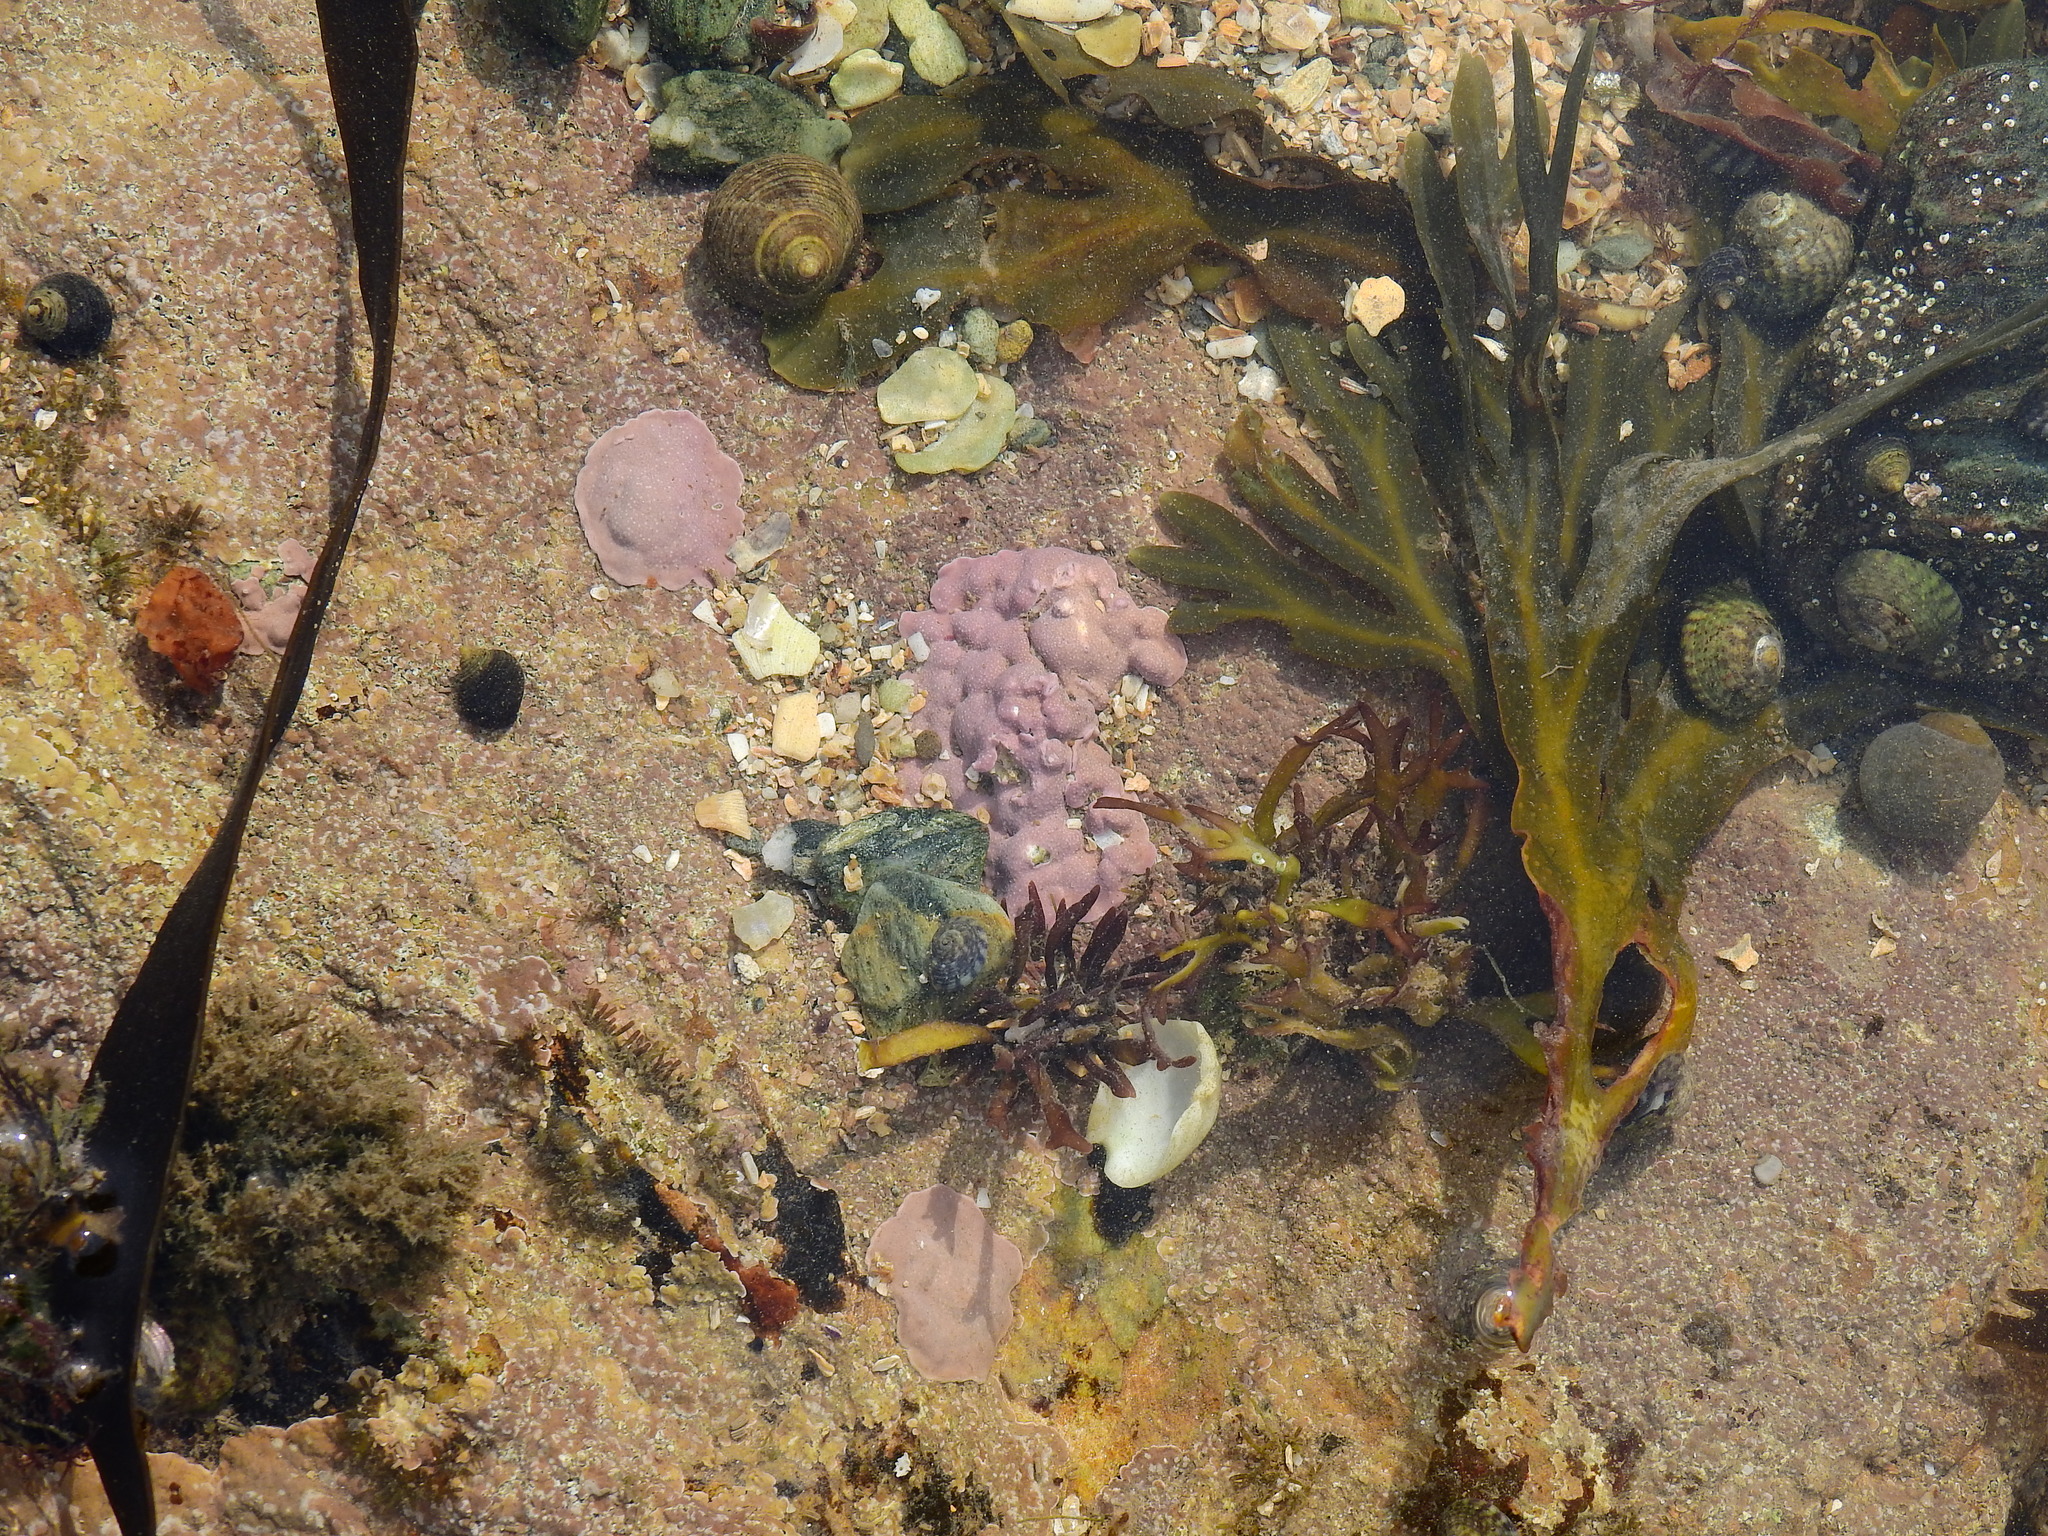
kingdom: Plantae
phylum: Rhodophyta
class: Florideophyceae
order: Corallinales
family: Lithophyllaceae
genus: Lithophyllum
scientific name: Lithophyllum incrustans
